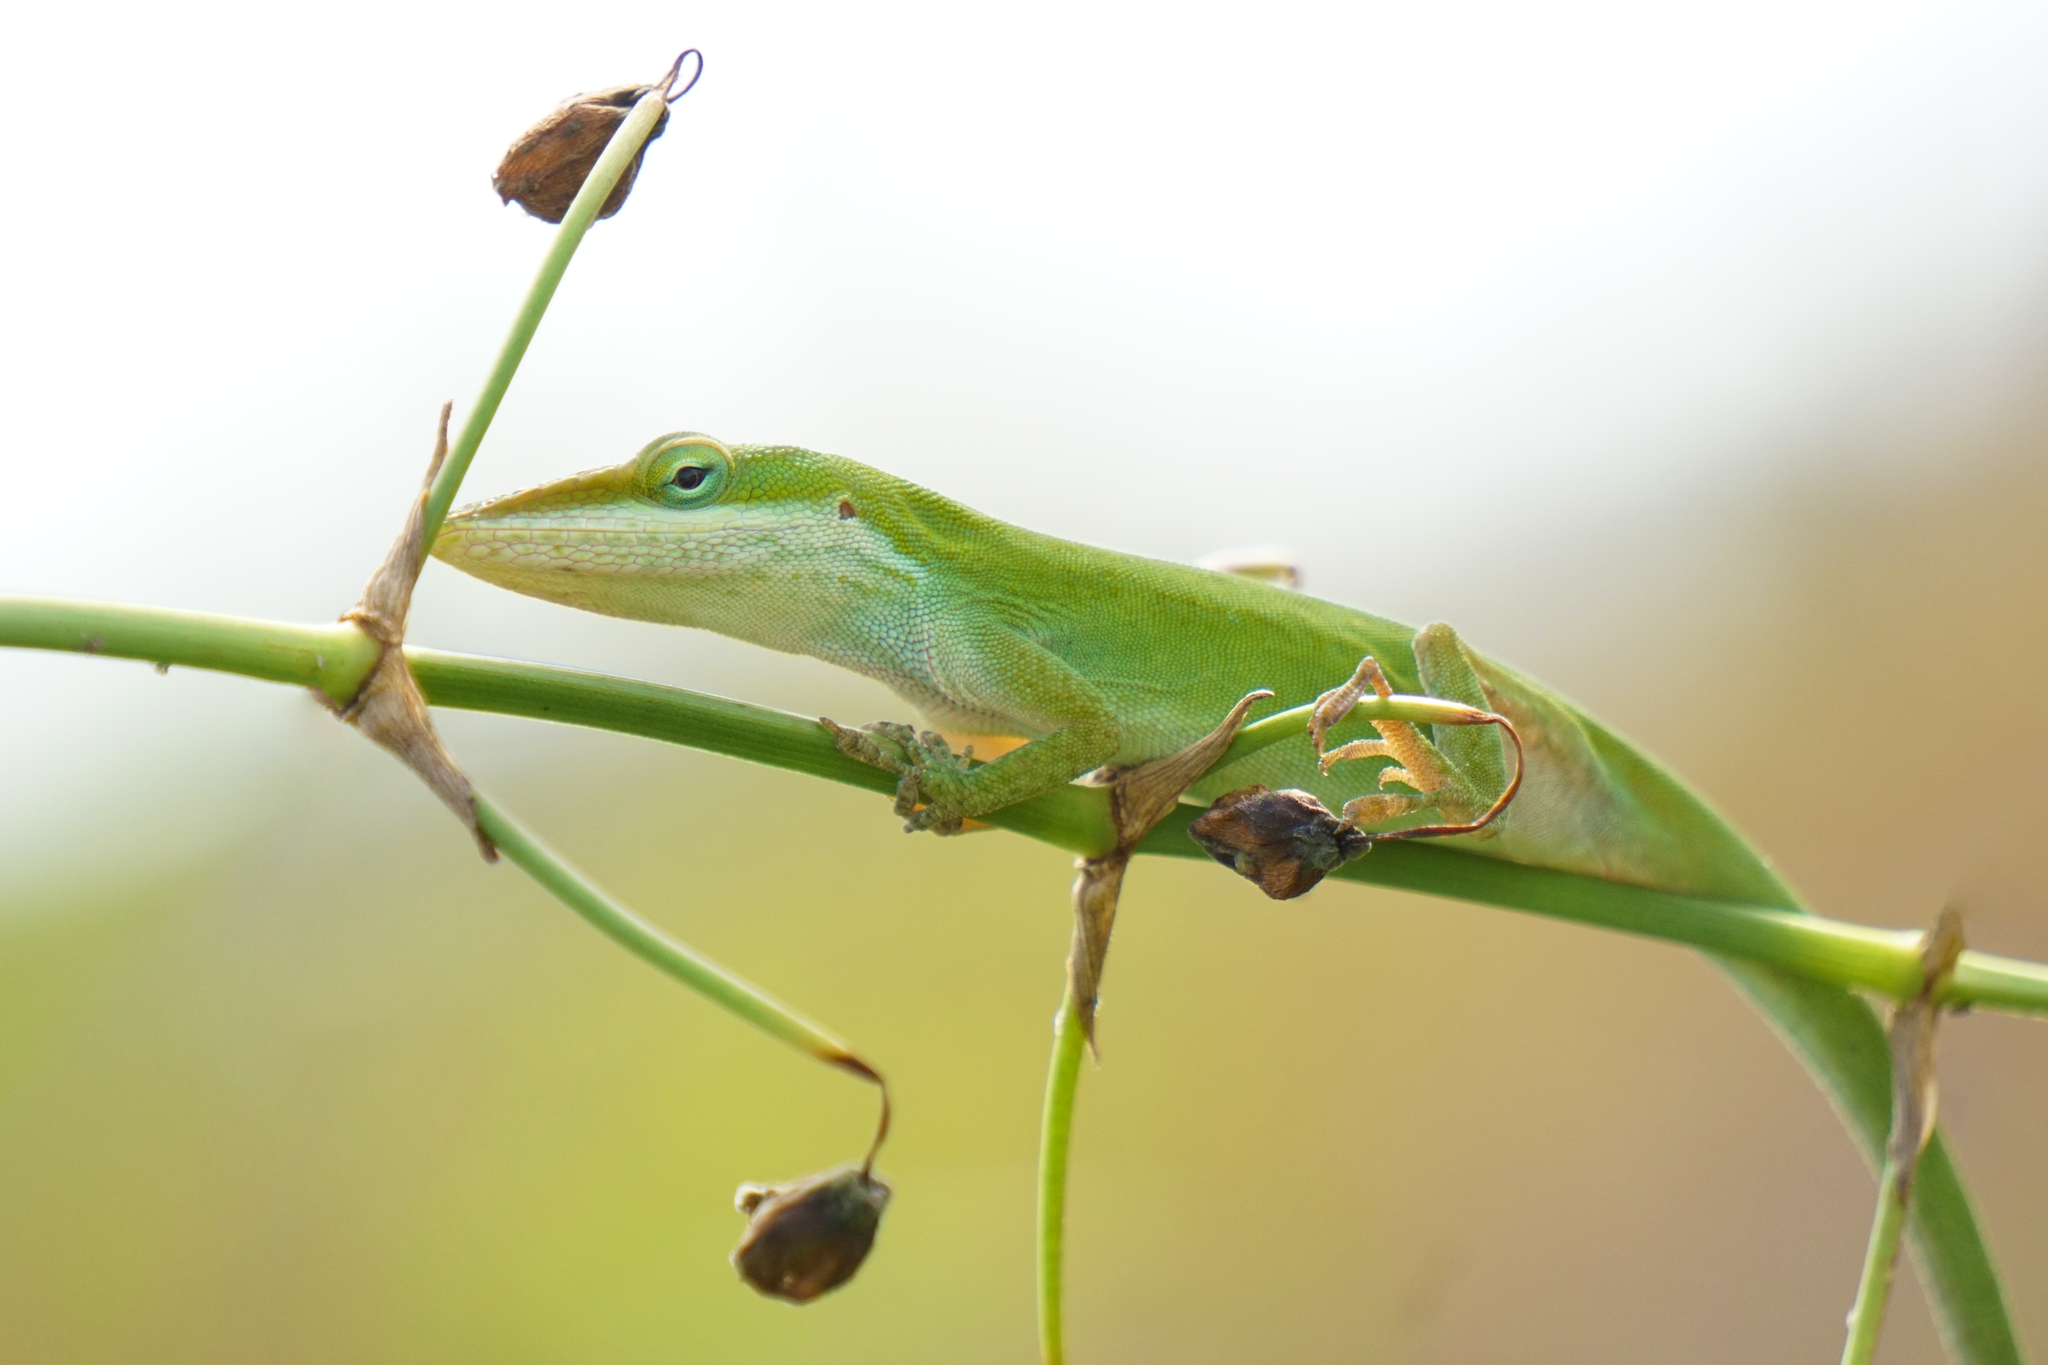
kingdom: Animalia
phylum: Chordata
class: Squamata
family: Dactyloidae
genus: Anolis
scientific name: Anolis carolinensis
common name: Green anole
